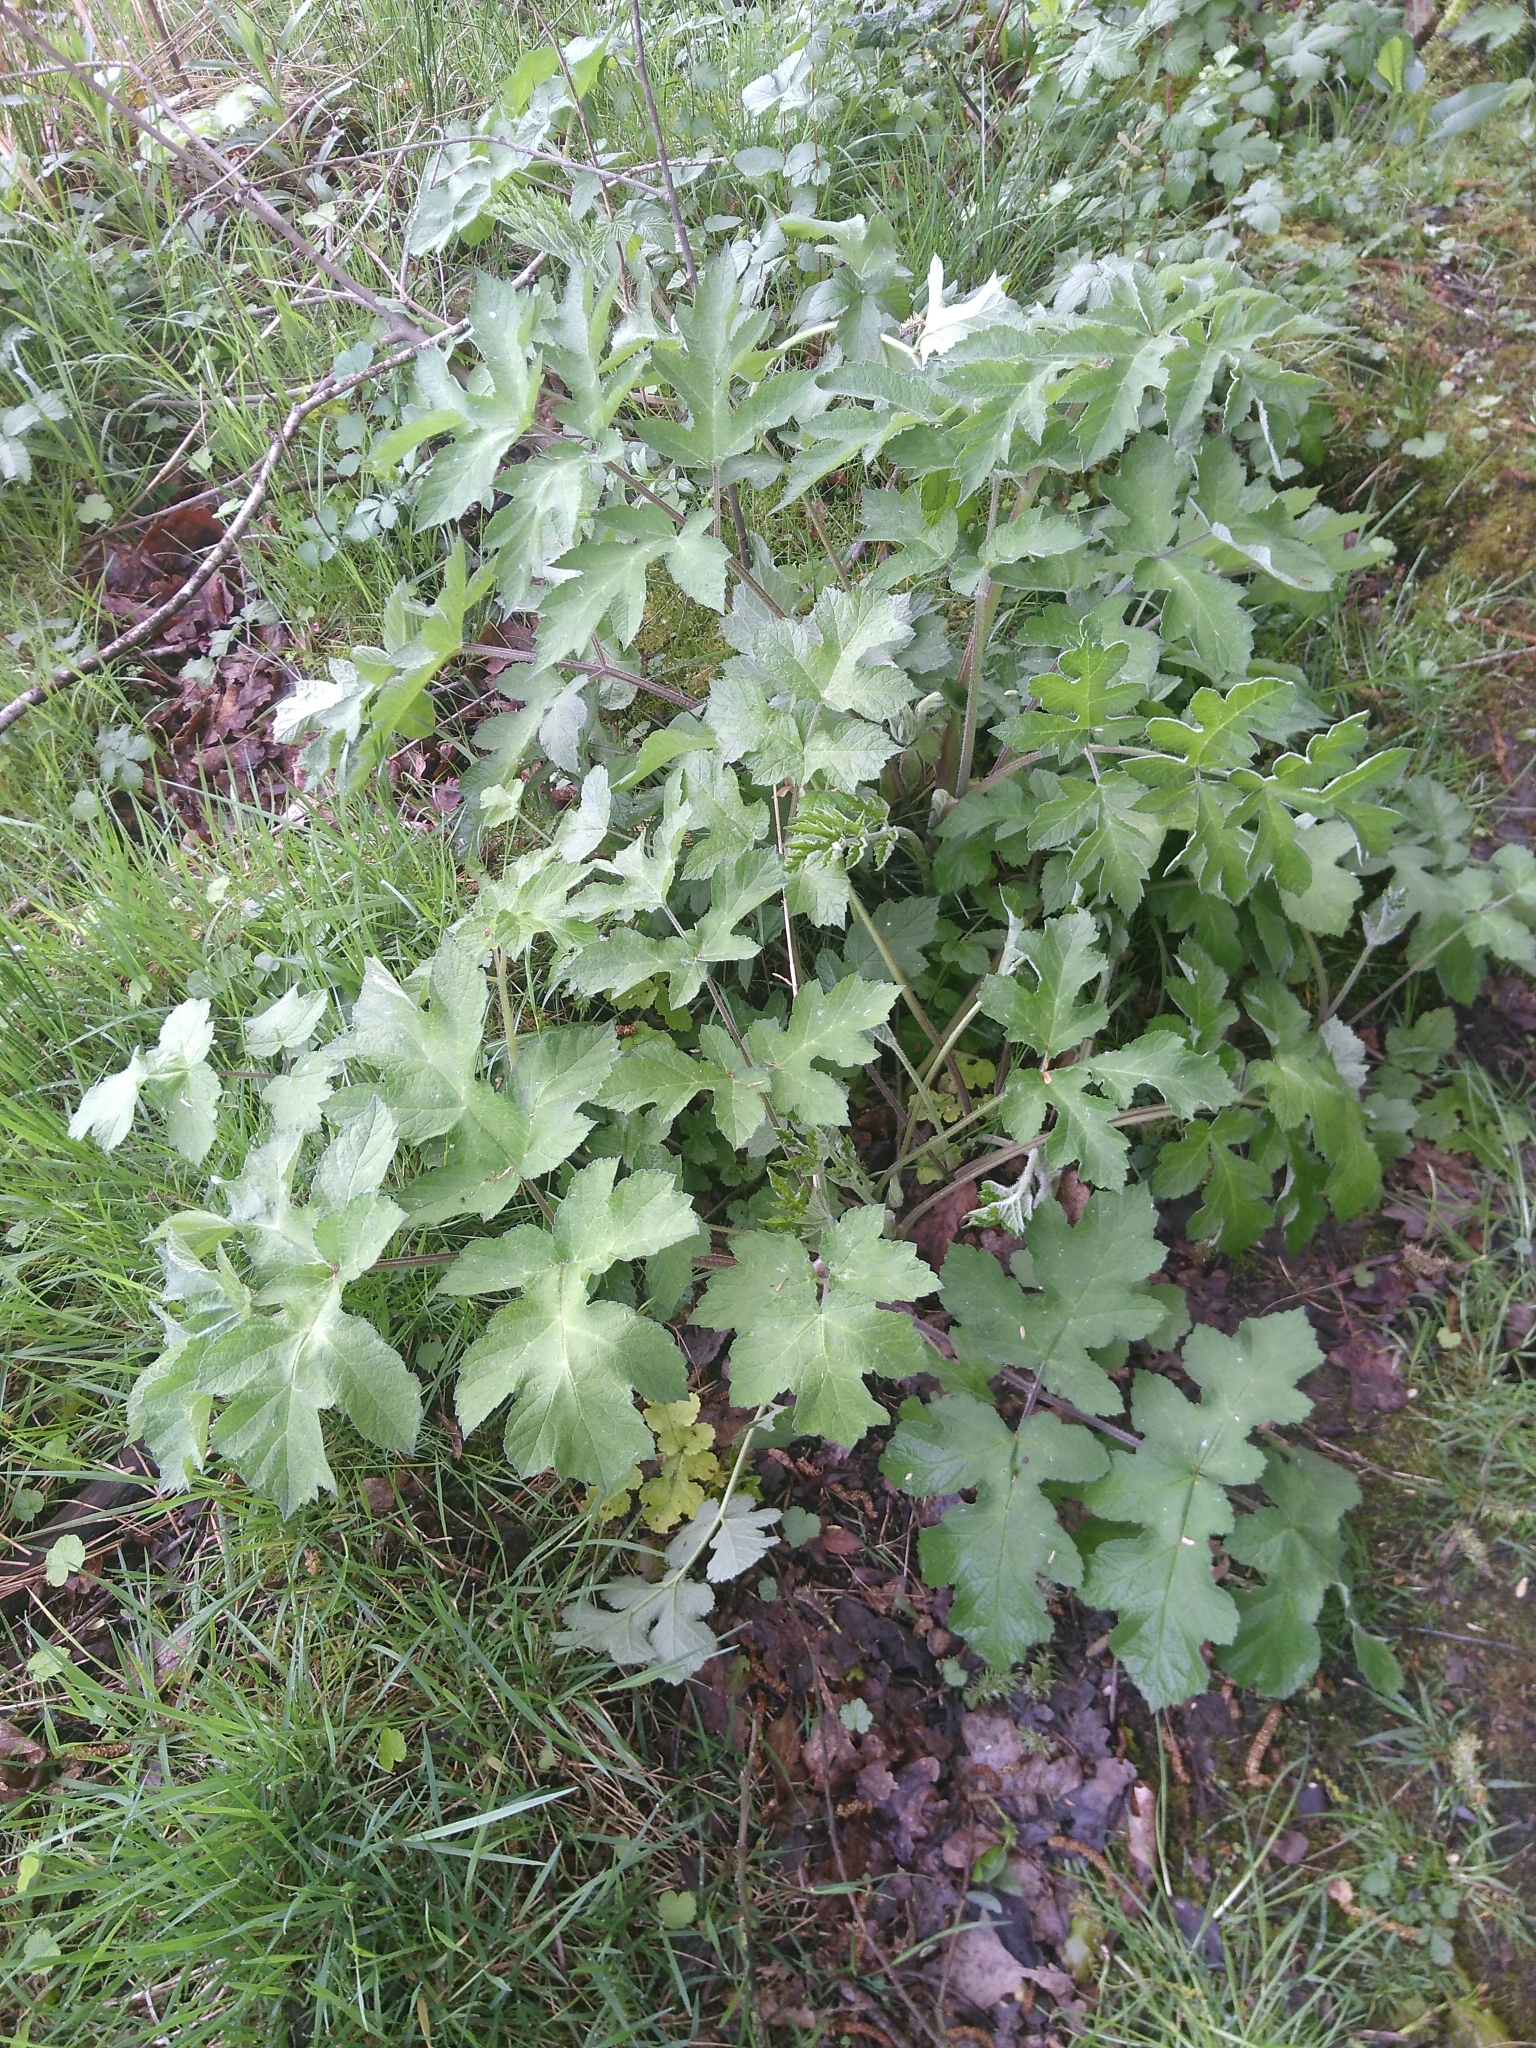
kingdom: Plantae
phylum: Tracheophyta
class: Magnoliopsida
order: Apiales
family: Apiaceae
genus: Heracleum
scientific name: Heracleum sphondylium
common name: Hogweed
